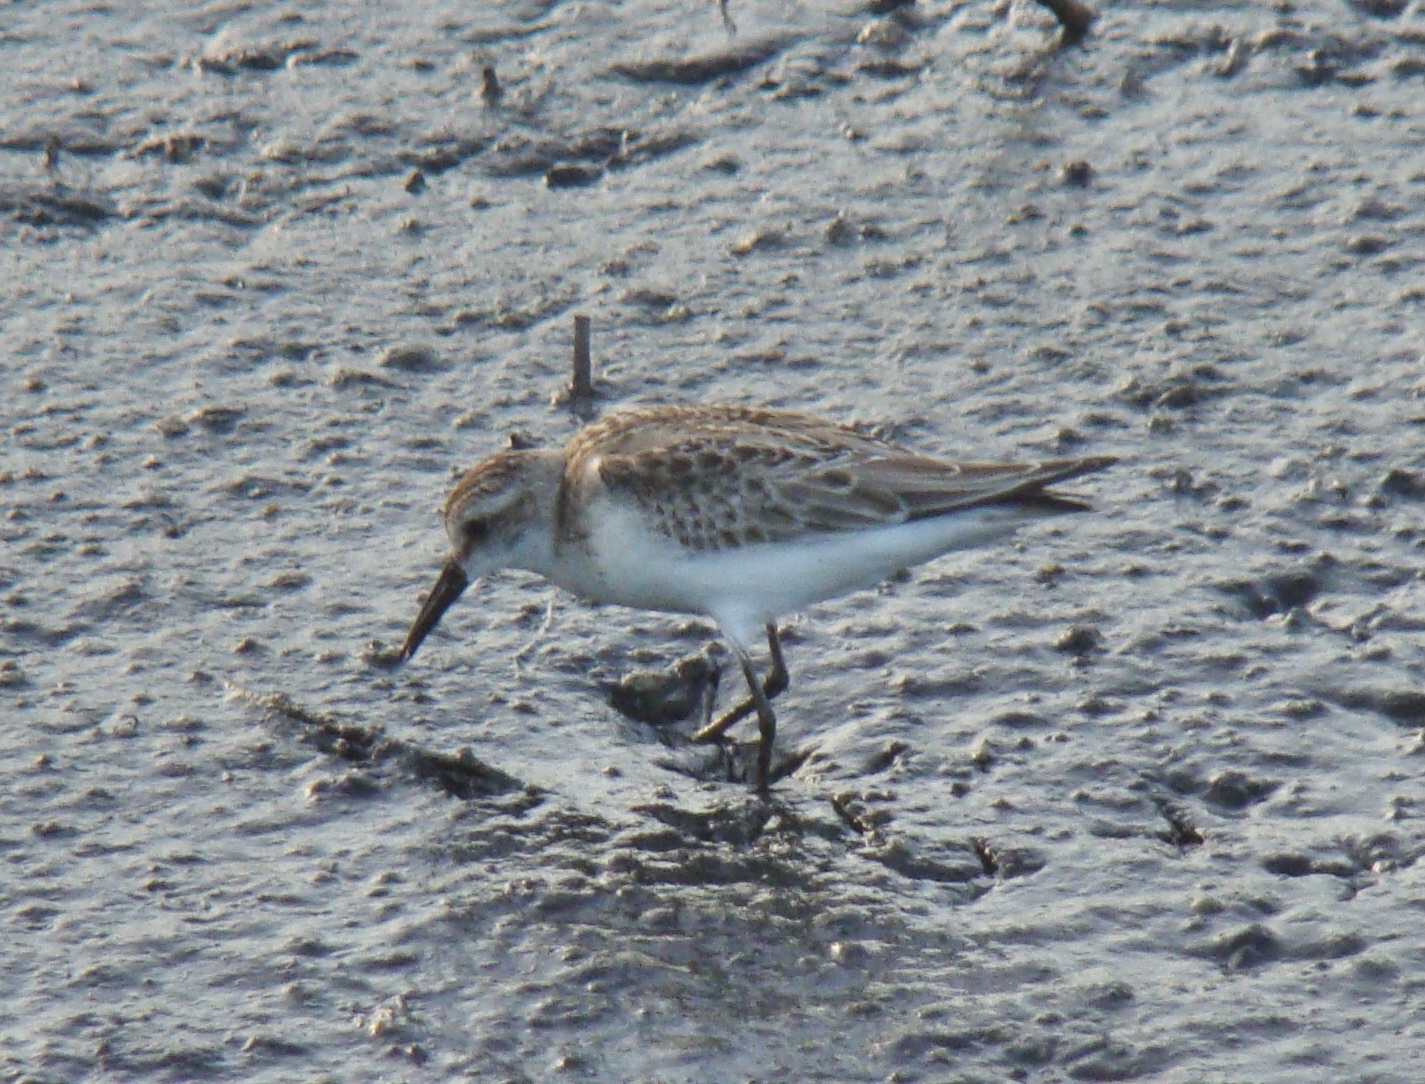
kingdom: Animalia
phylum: Chordata
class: Aves
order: Charadriiformes
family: Scolopacidae
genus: Calidris
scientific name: Calidris fuscicollis
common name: White-rumped sandpiper
